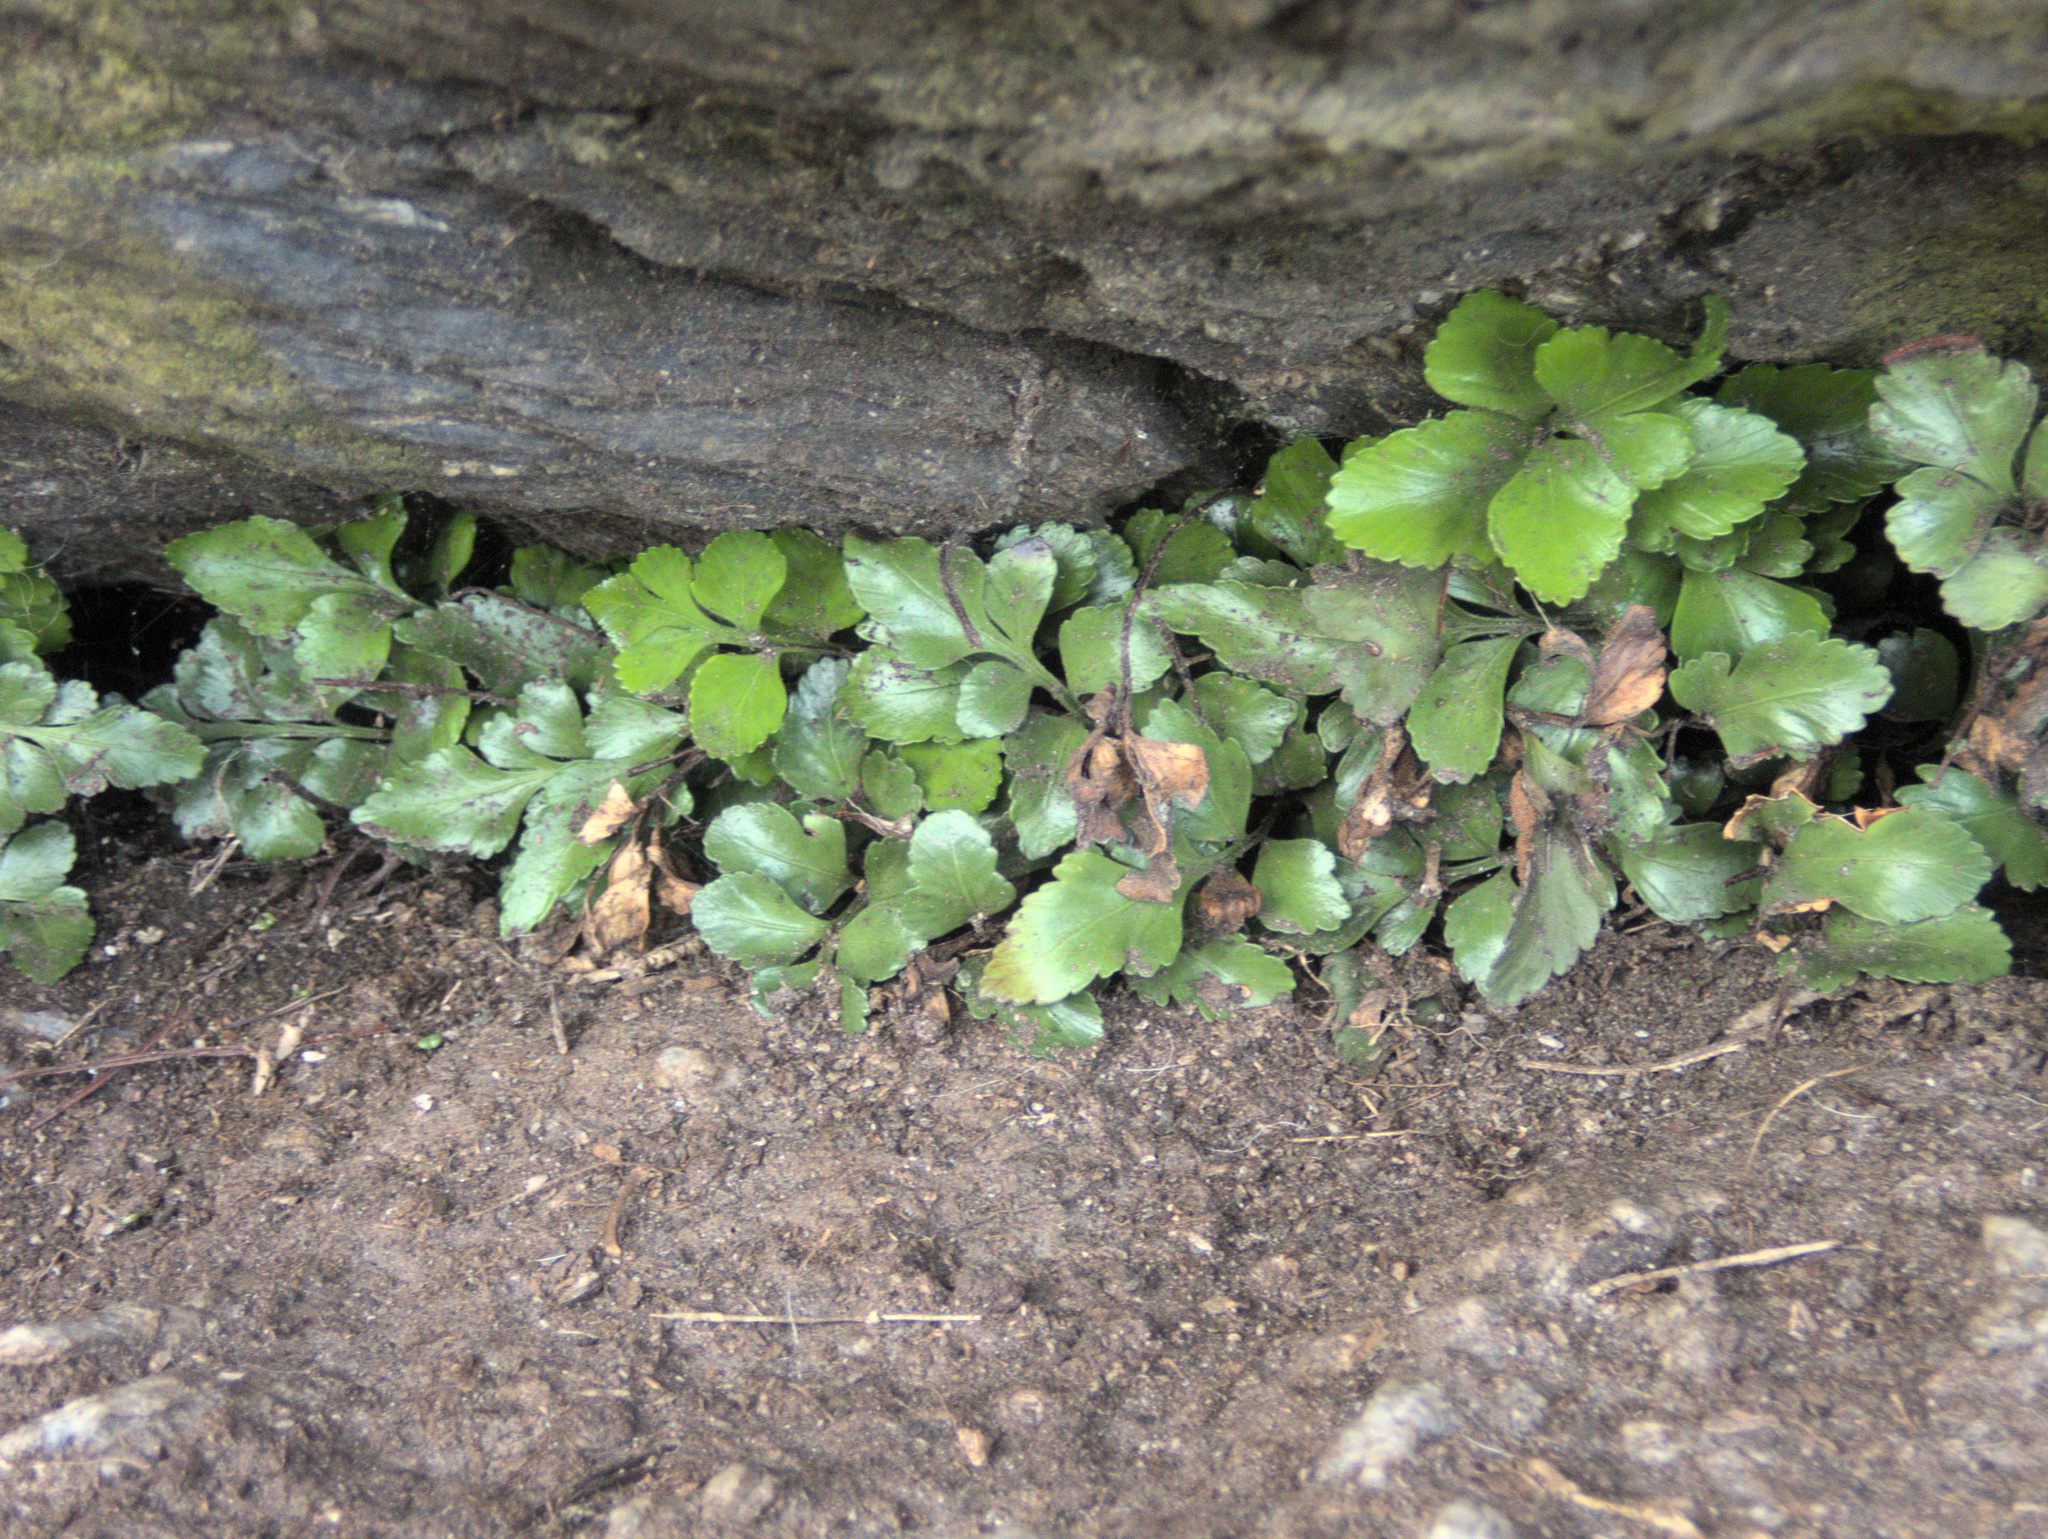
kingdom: Plantae
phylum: Tracheophyta
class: Polypodiopsida
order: Polypodiales
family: Aspleniaceae
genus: Asplenium
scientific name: Asplenium pauperequitum
